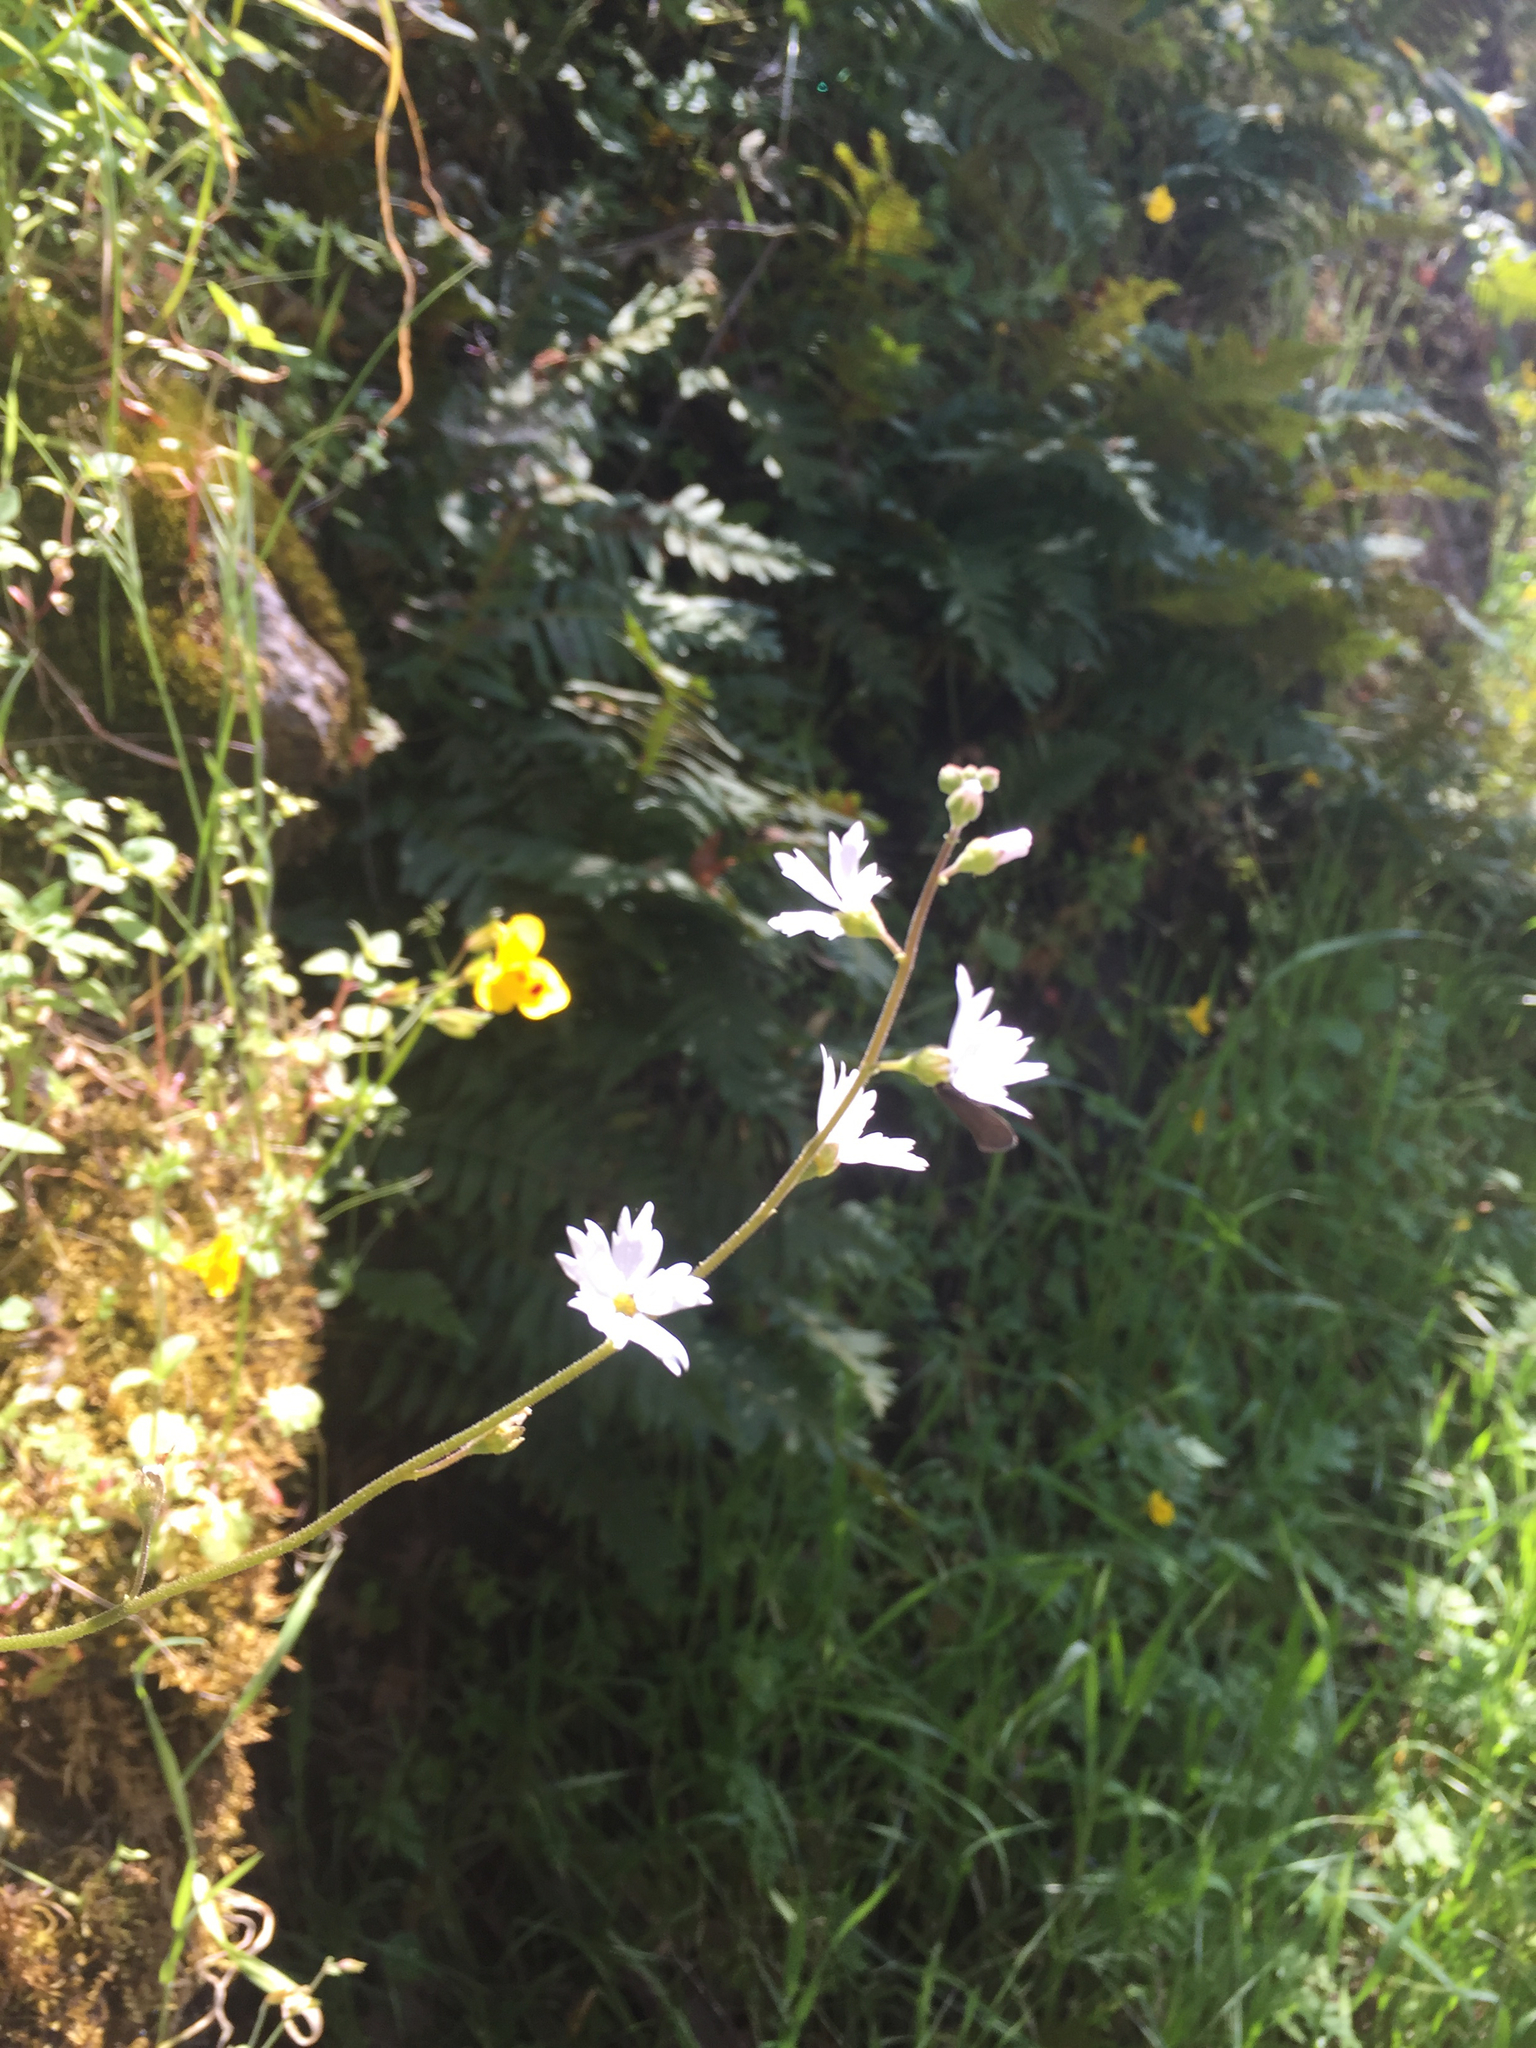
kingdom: Plantae
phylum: Tracheophyta
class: Magnoliopsida
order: Saxifragales
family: Saxifragaceae
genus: Lithophragma
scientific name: Lithophragma affine
